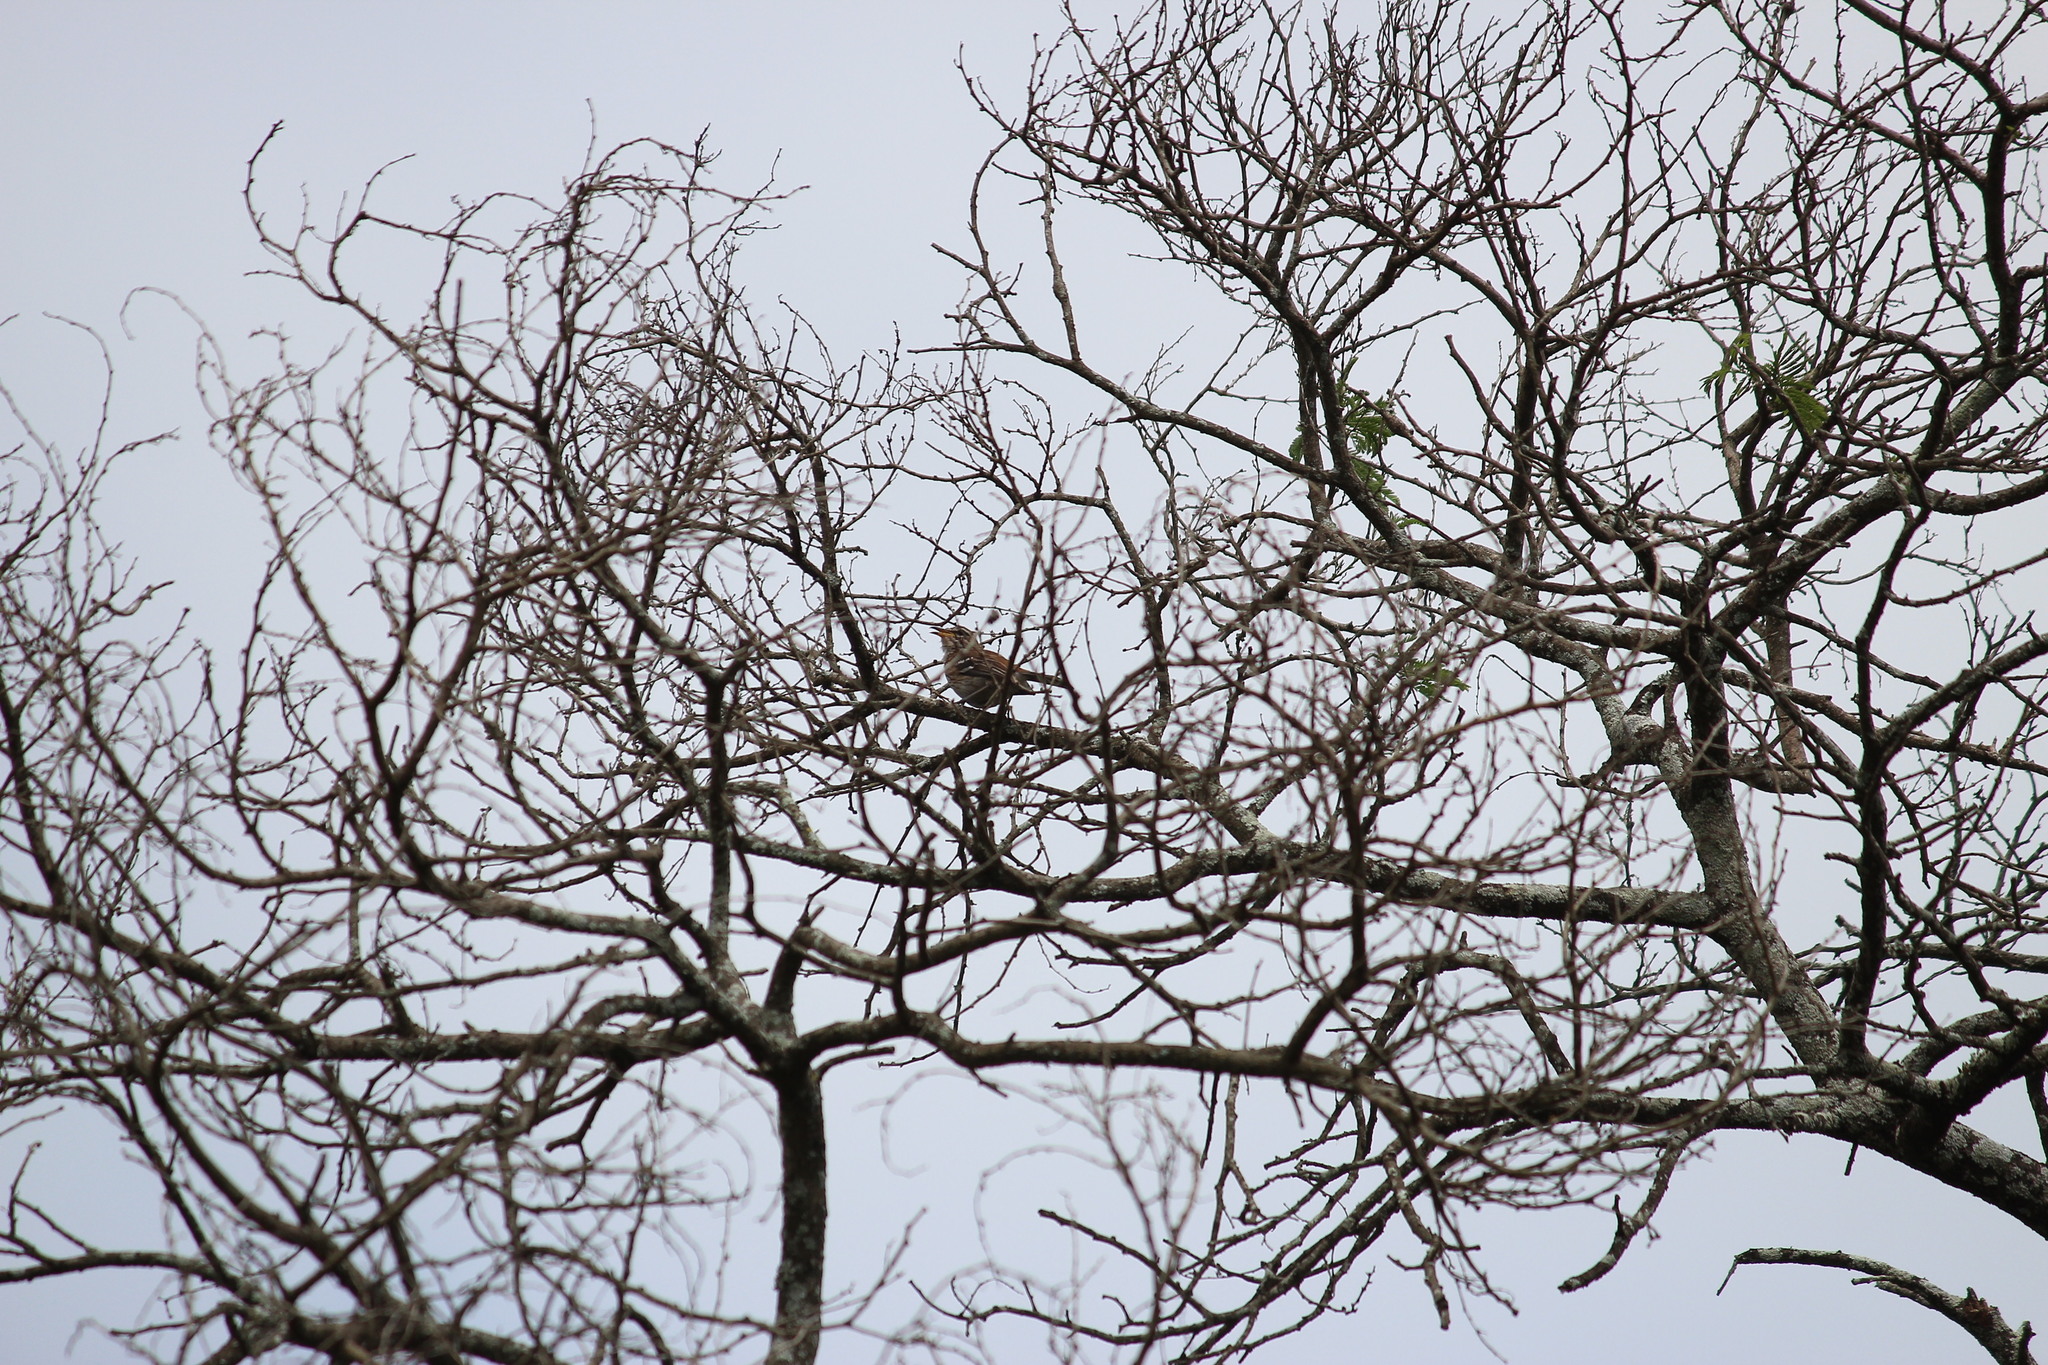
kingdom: Animalia
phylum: Chordata
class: Aves
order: Passeriformes
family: Muscicapidae
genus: Erythropygia
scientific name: Erythropygia leucophrys
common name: White-browed scrub robin
